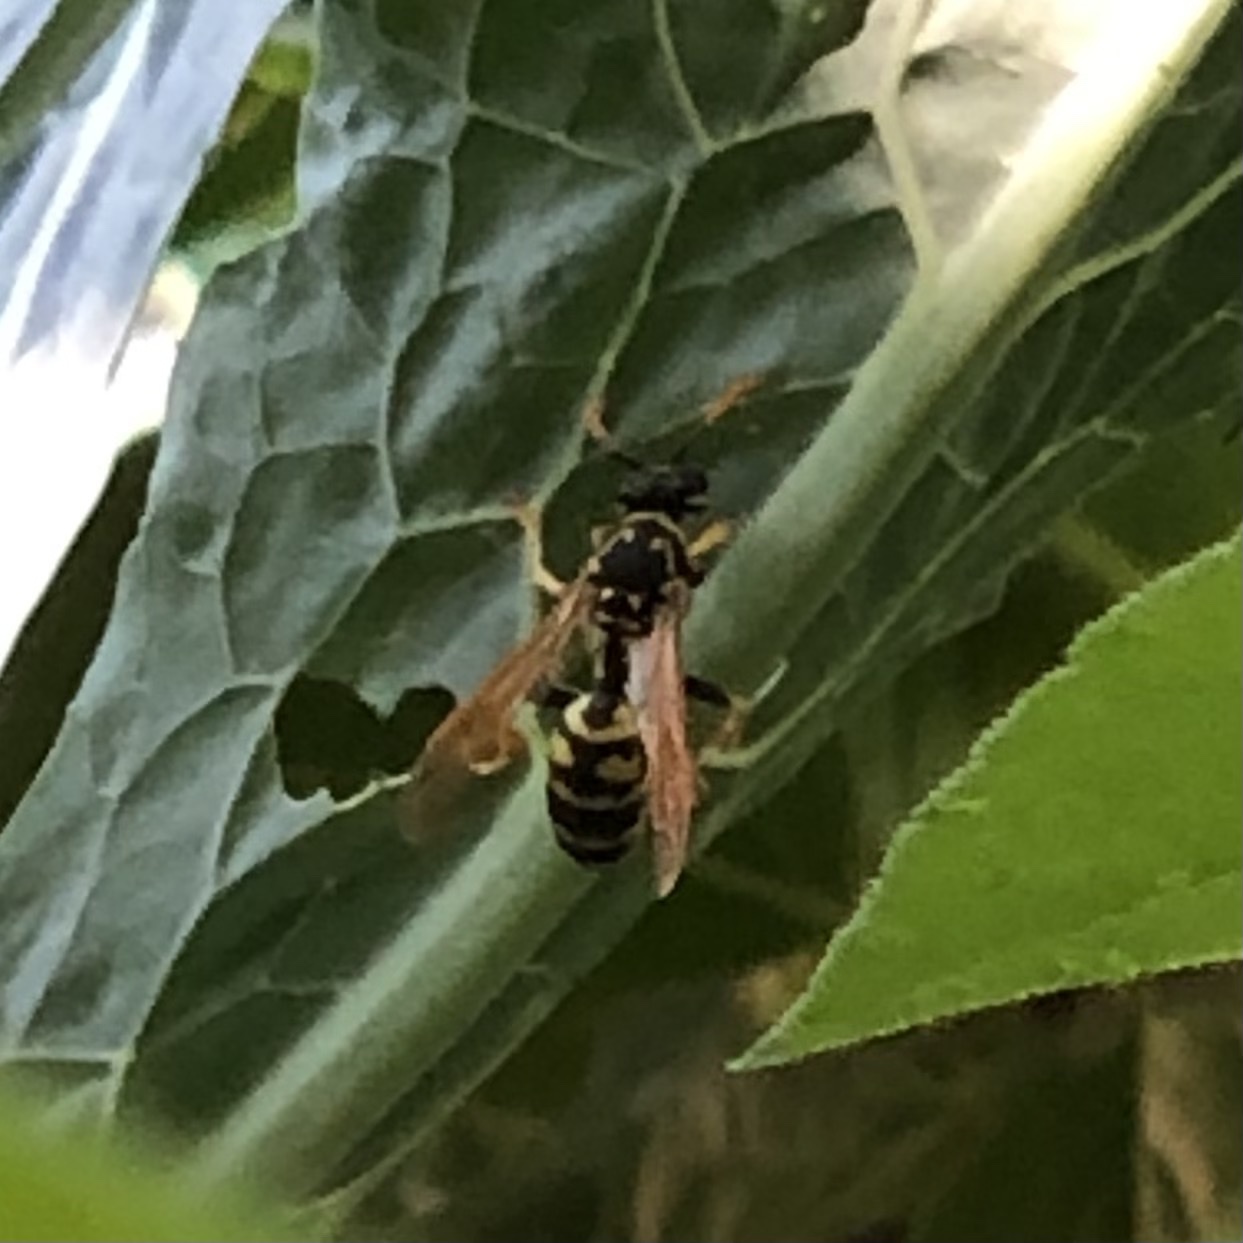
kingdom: Animalia
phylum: Arthropoda
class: Insecta
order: Hymenoptera
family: Eumenidae
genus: Polistes
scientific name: Polistes dominula
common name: Paper wasp
